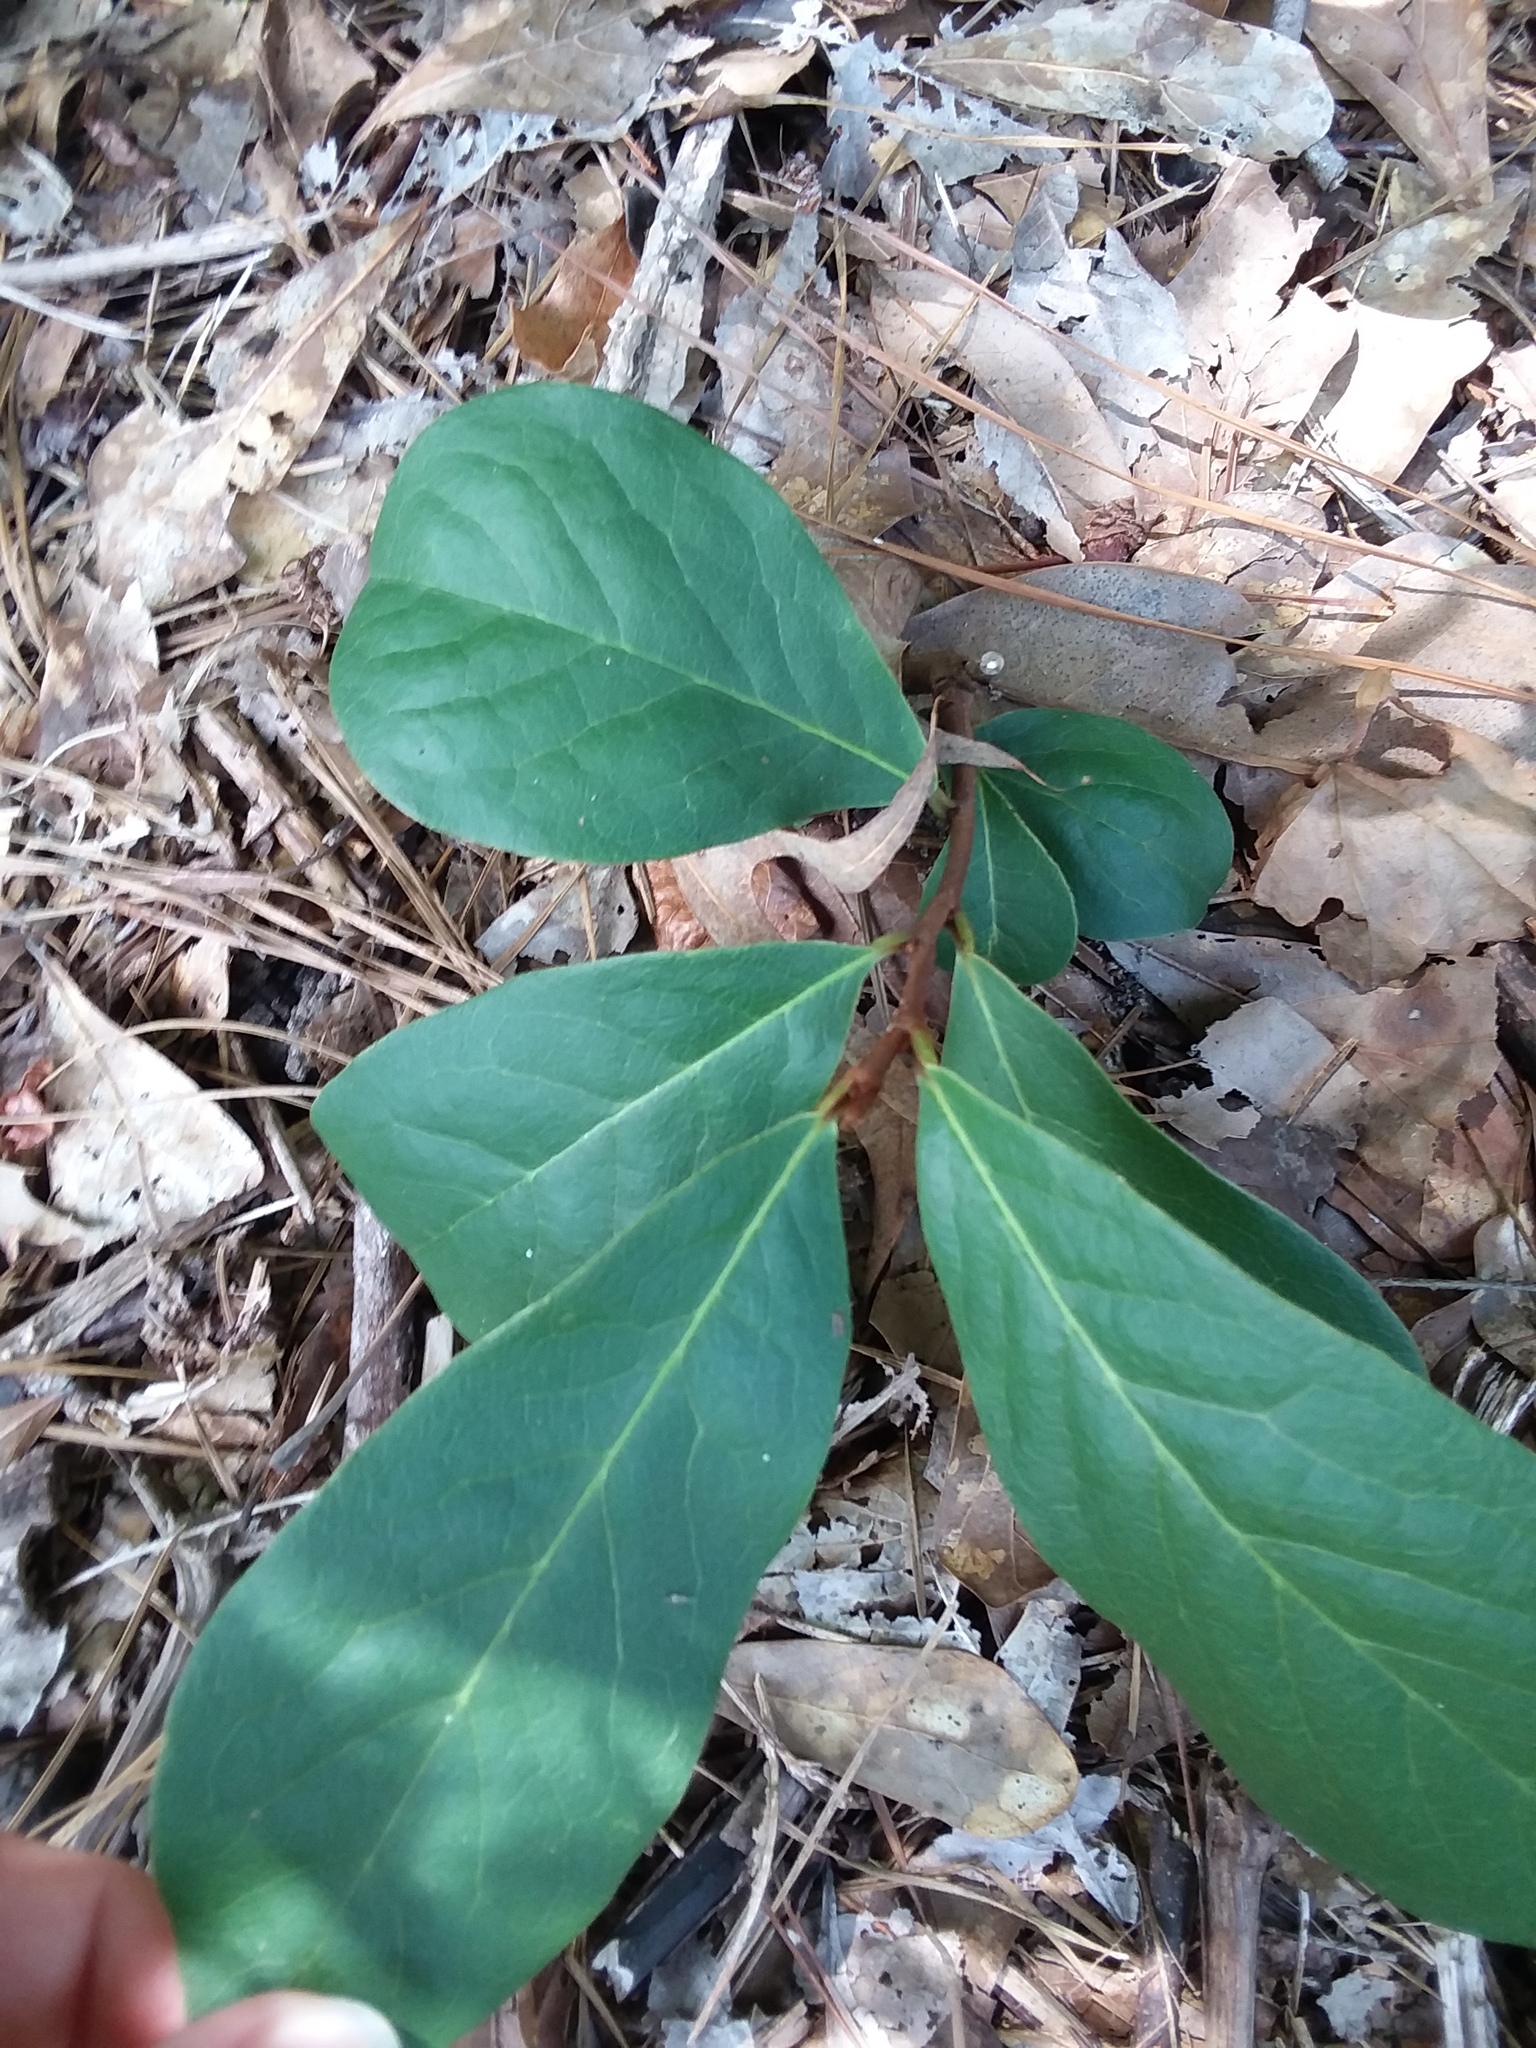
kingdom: Plantae
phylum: Tracheophyta
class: Magnoliopsida
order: Magnoliales
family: Annonaceae
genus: Asimina
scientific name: Asimina parviflora
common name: Dwarf pawpaw
